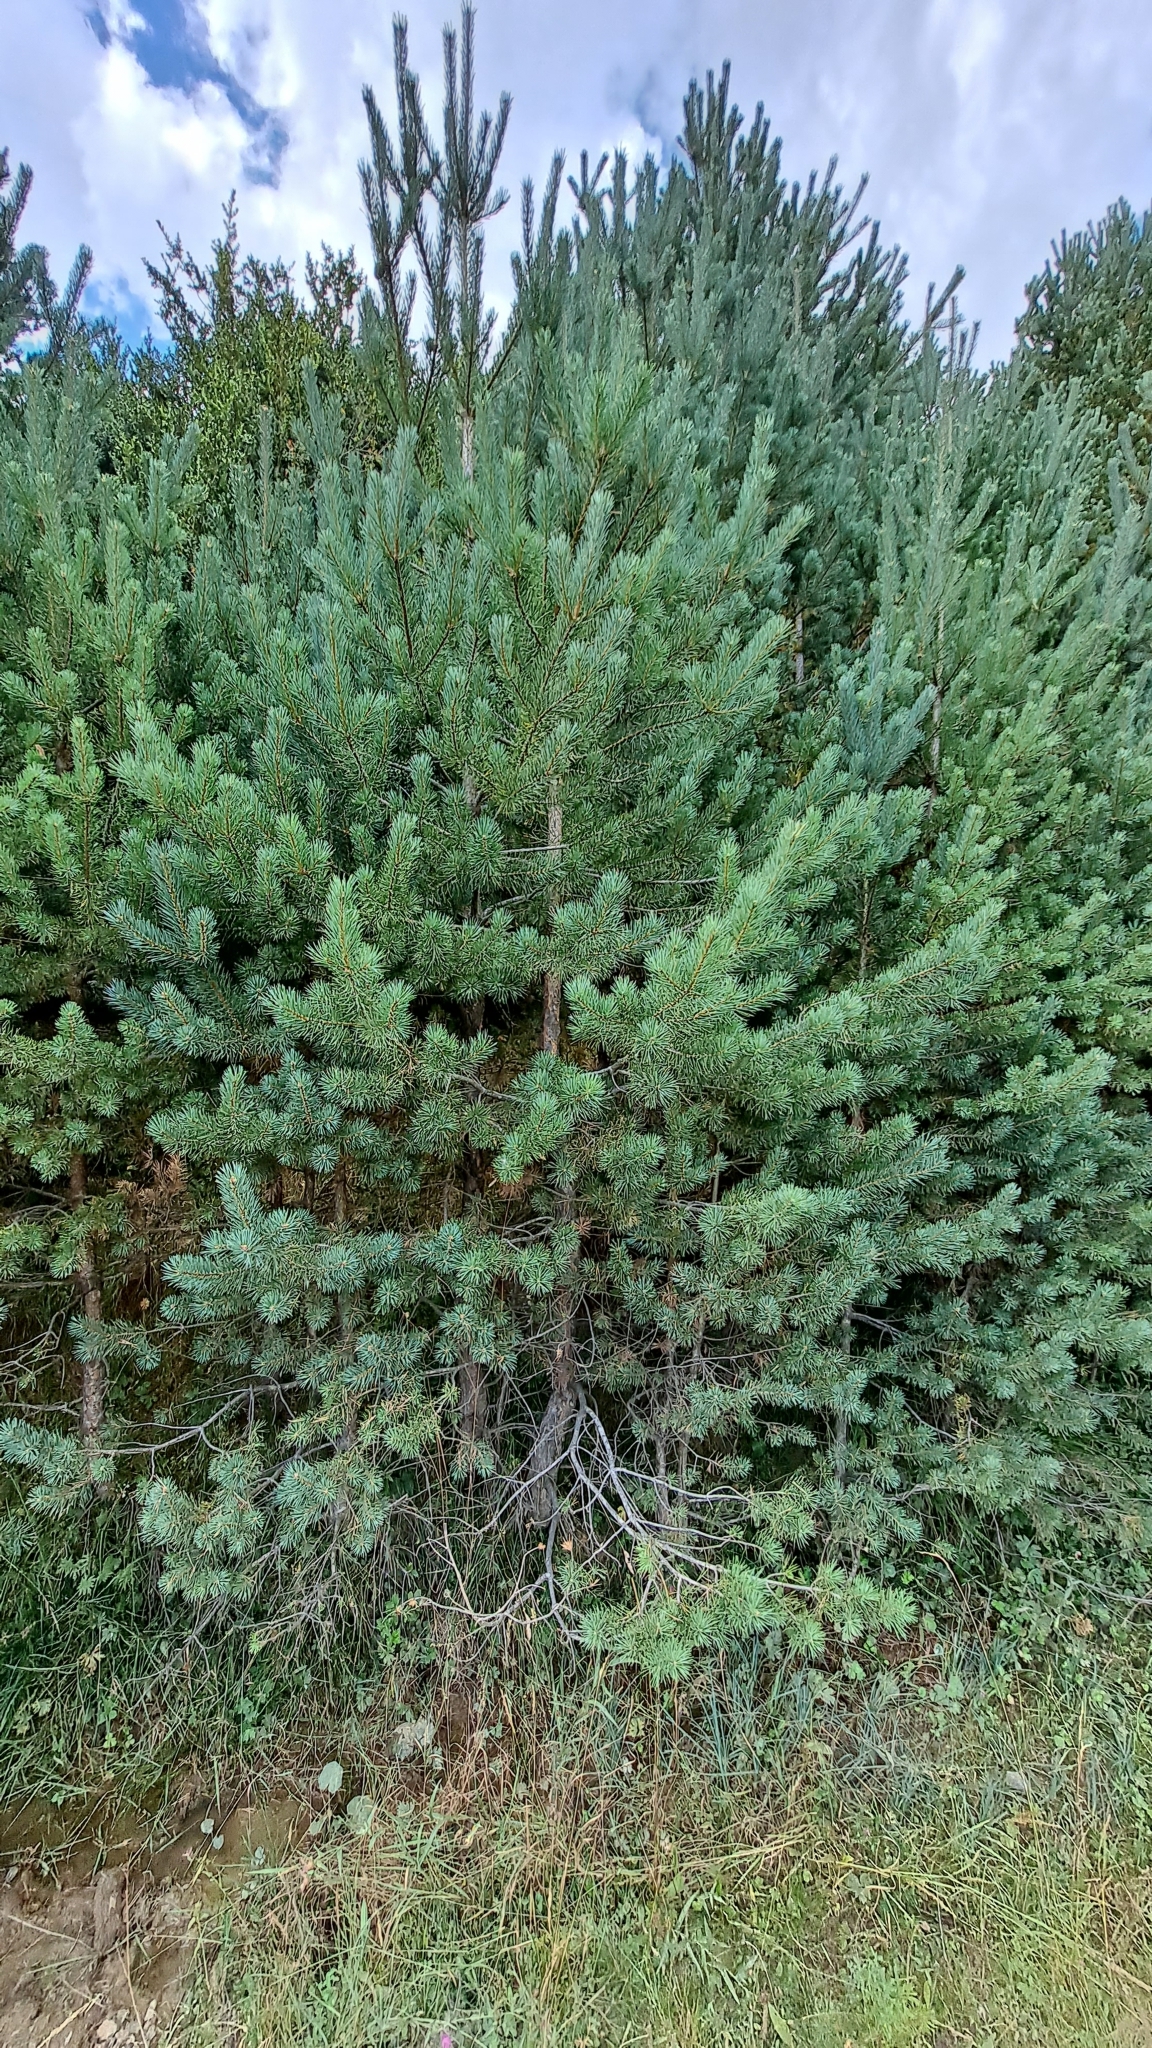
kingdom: Plantae
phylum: Tracheophyta
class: Pinopsida
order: Pinales
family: Pinaceae
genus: Pinus
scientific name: Pinus sylvestris
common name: Scots pine
